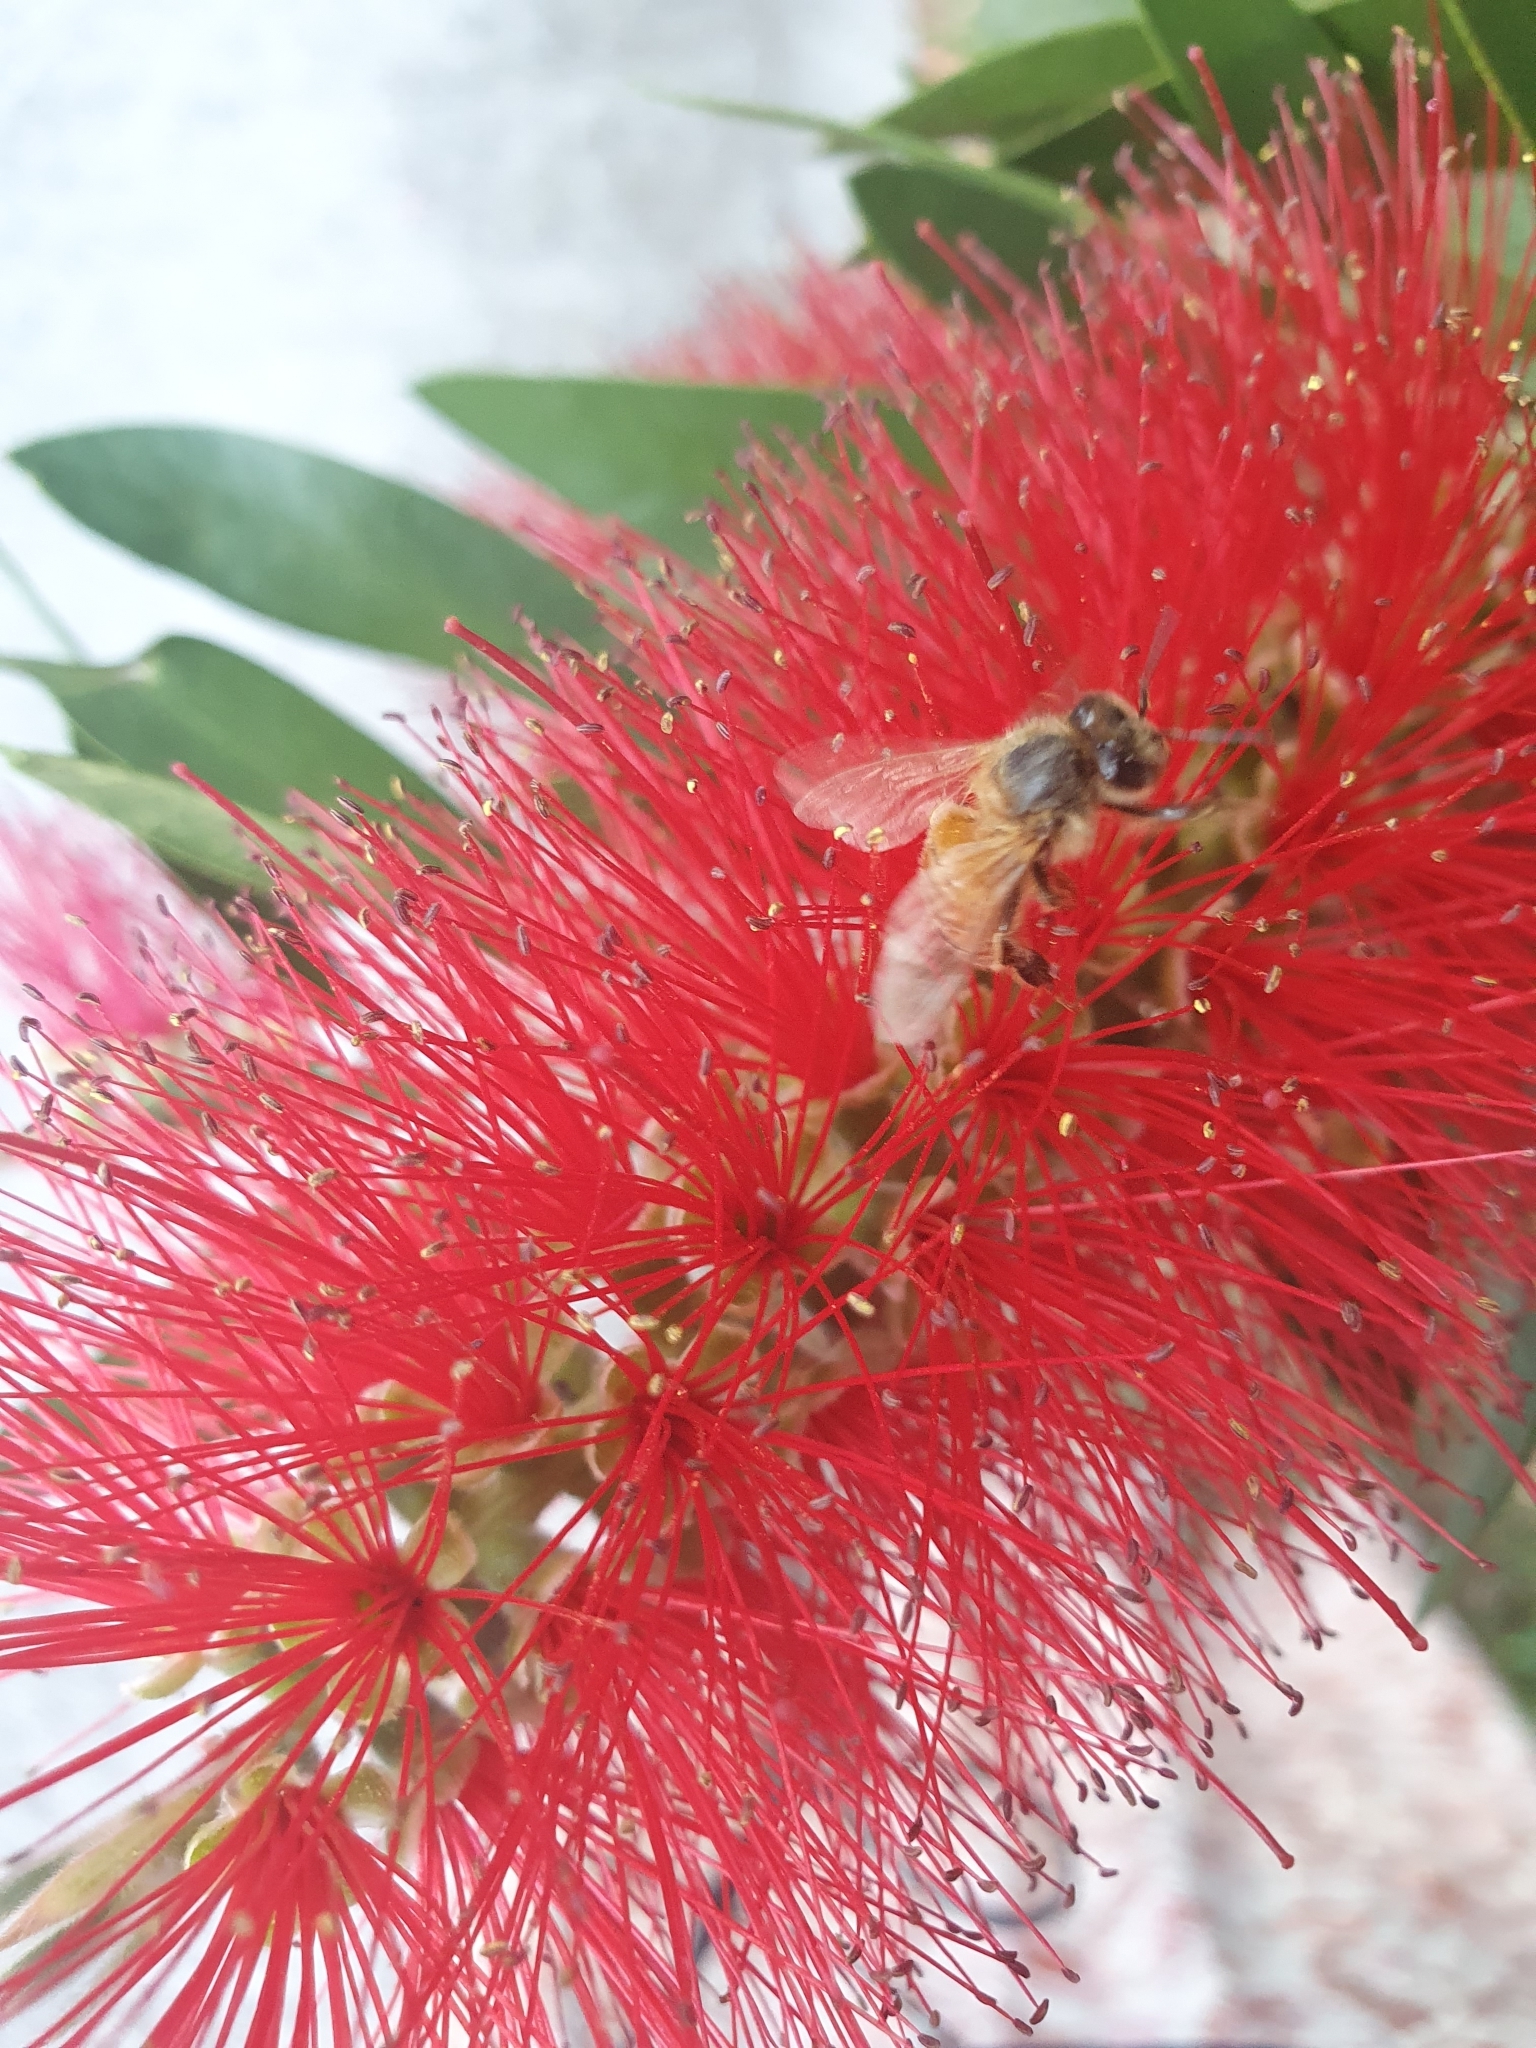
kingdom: Animalia
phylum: Arthropoda
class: Insecta
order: Hymenoptera
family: Apidae
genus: Apis
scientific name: Apis mellifera
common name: Honey bee
